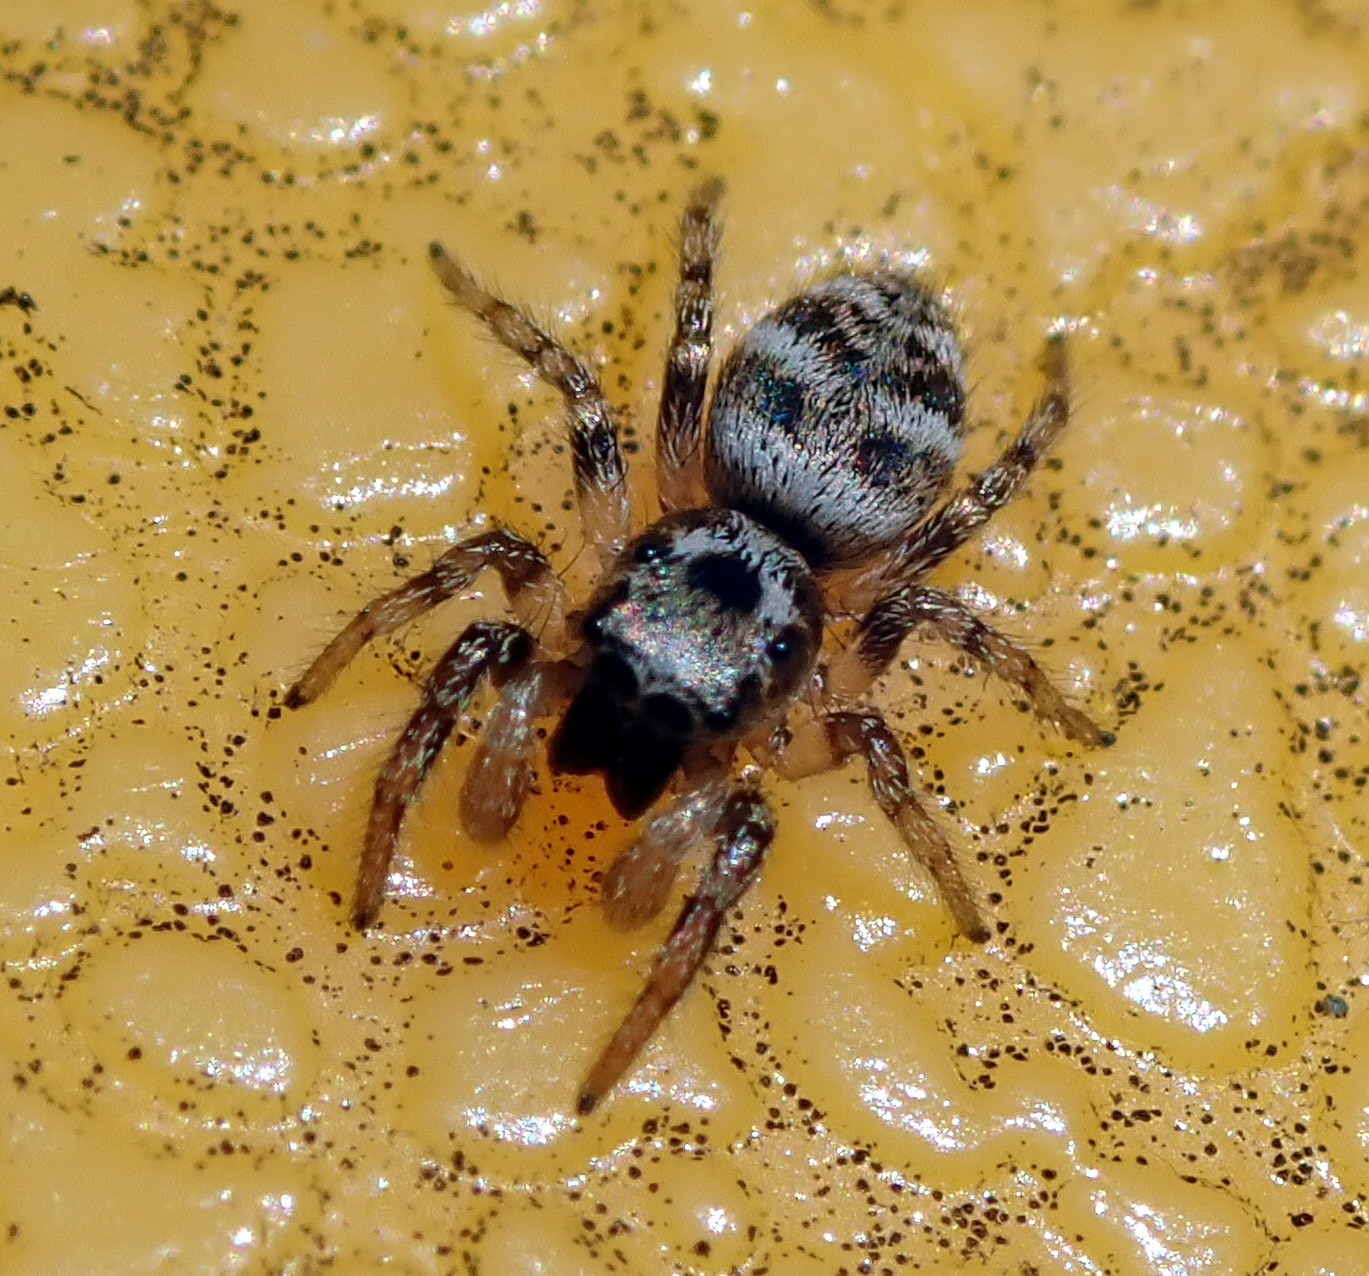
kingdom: Animalia
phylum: Arthropoda
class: Arachnida
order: Araneae
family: Salticidae
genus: Salticus
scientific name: Salticus scenicus
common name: Zebra jumper
